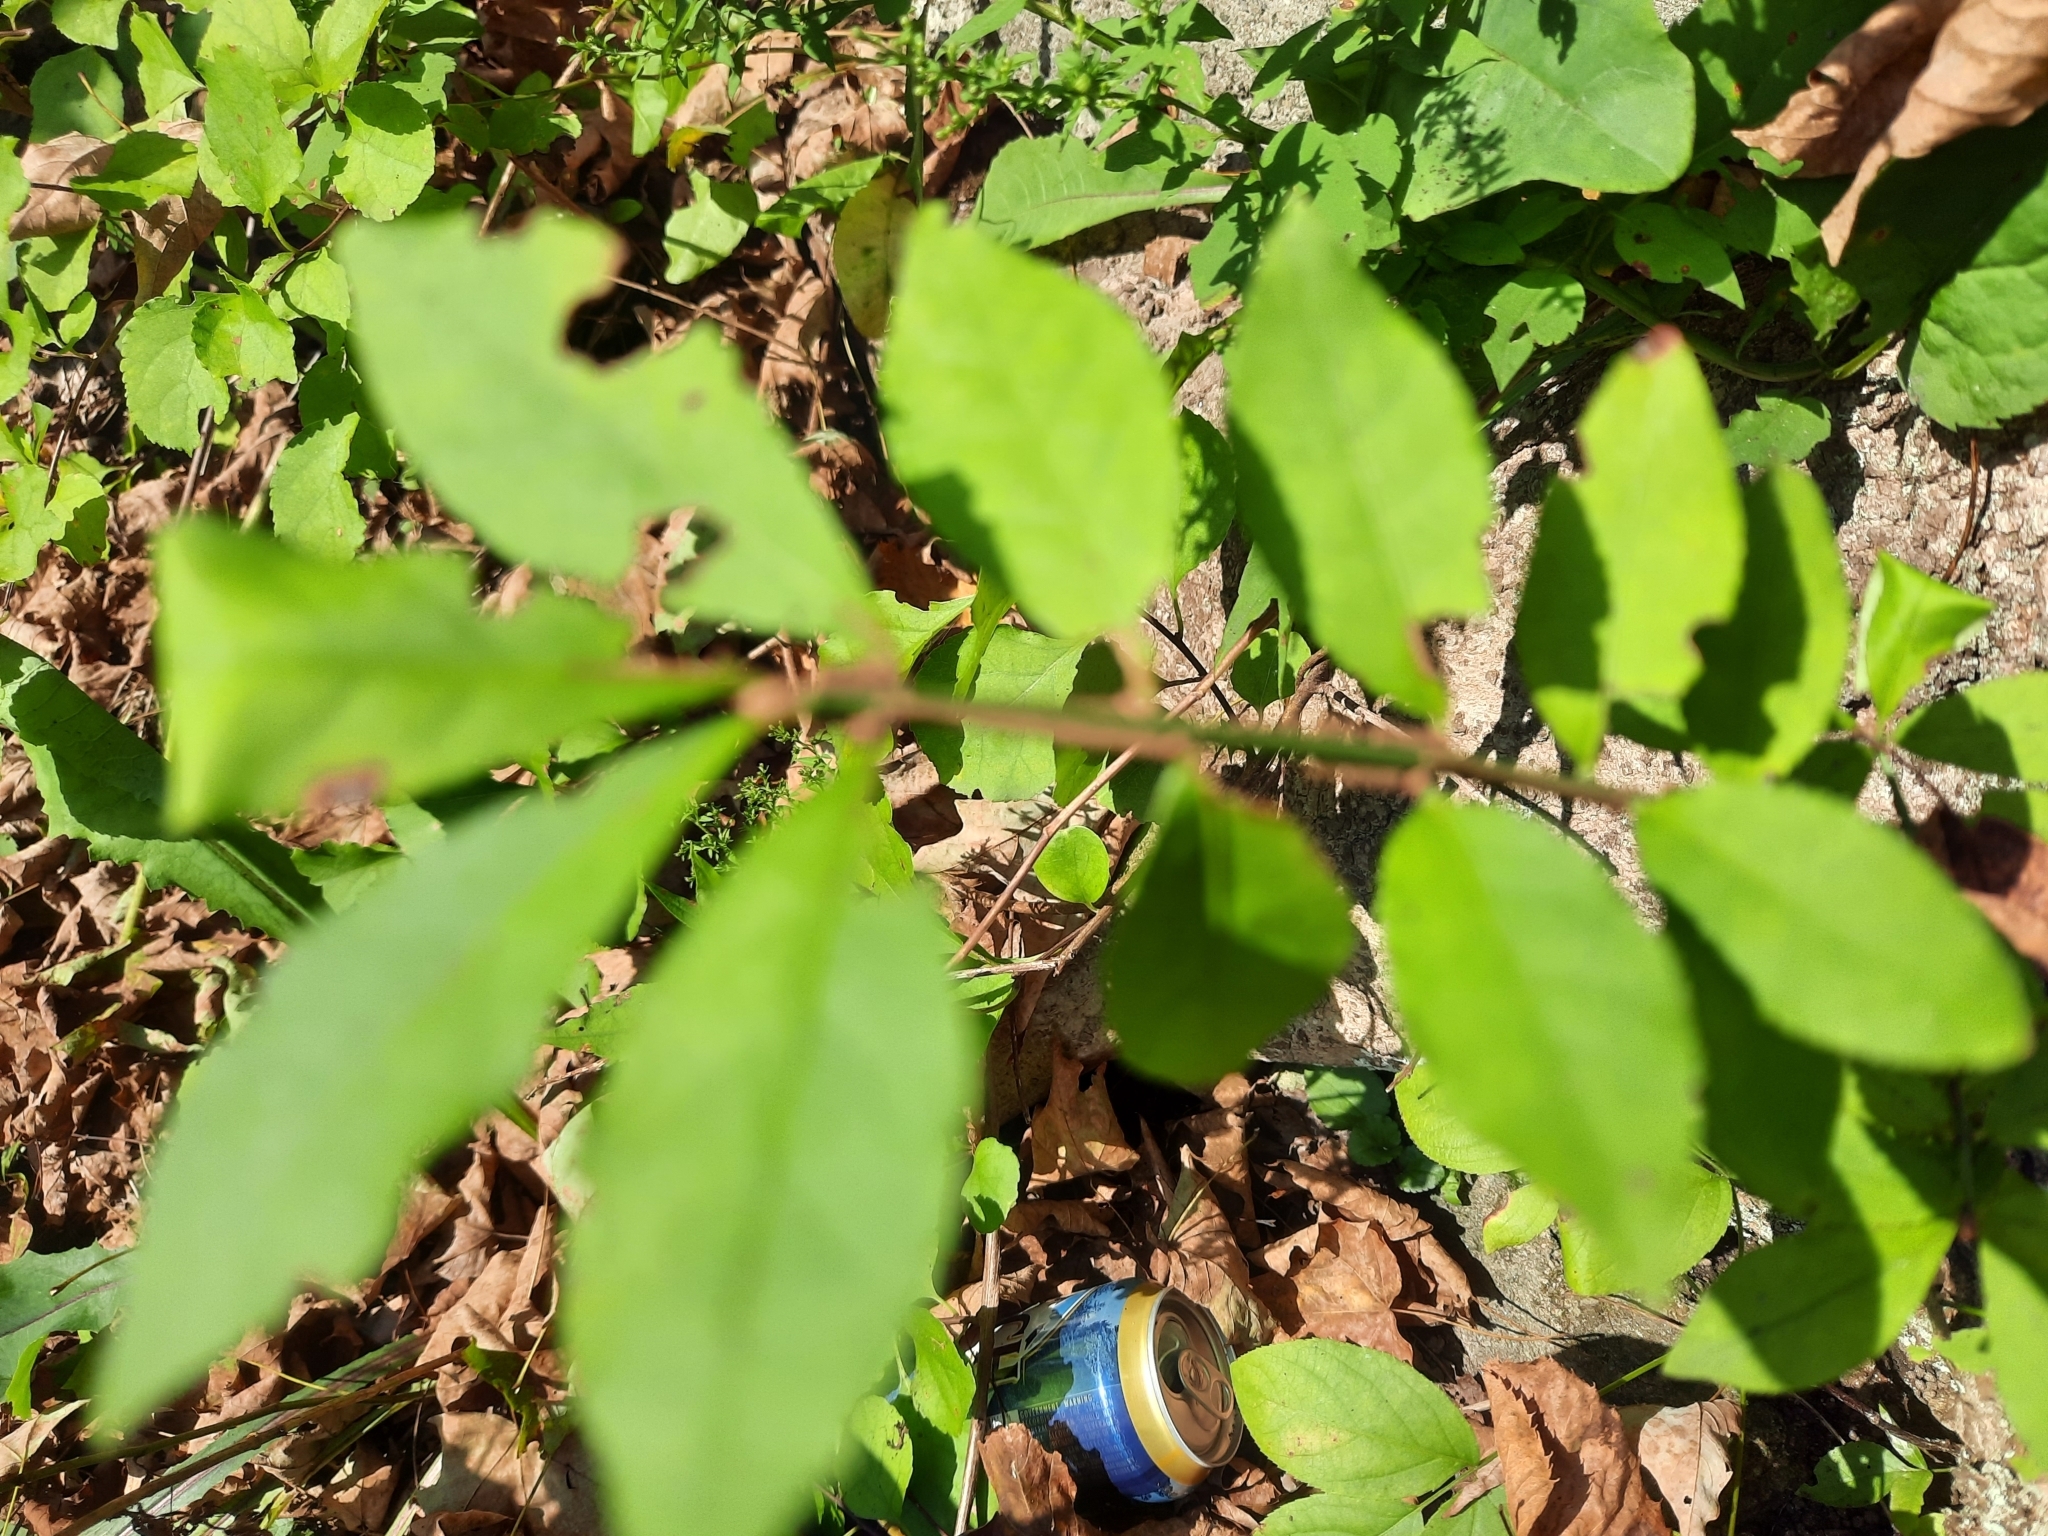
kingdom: Plantae
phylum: Tracheophyta
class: Magnoliopsida
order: Celastrales
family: Celastraceae
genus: Euonymus
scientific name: Euonymus alatus
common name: Winged euonymus
